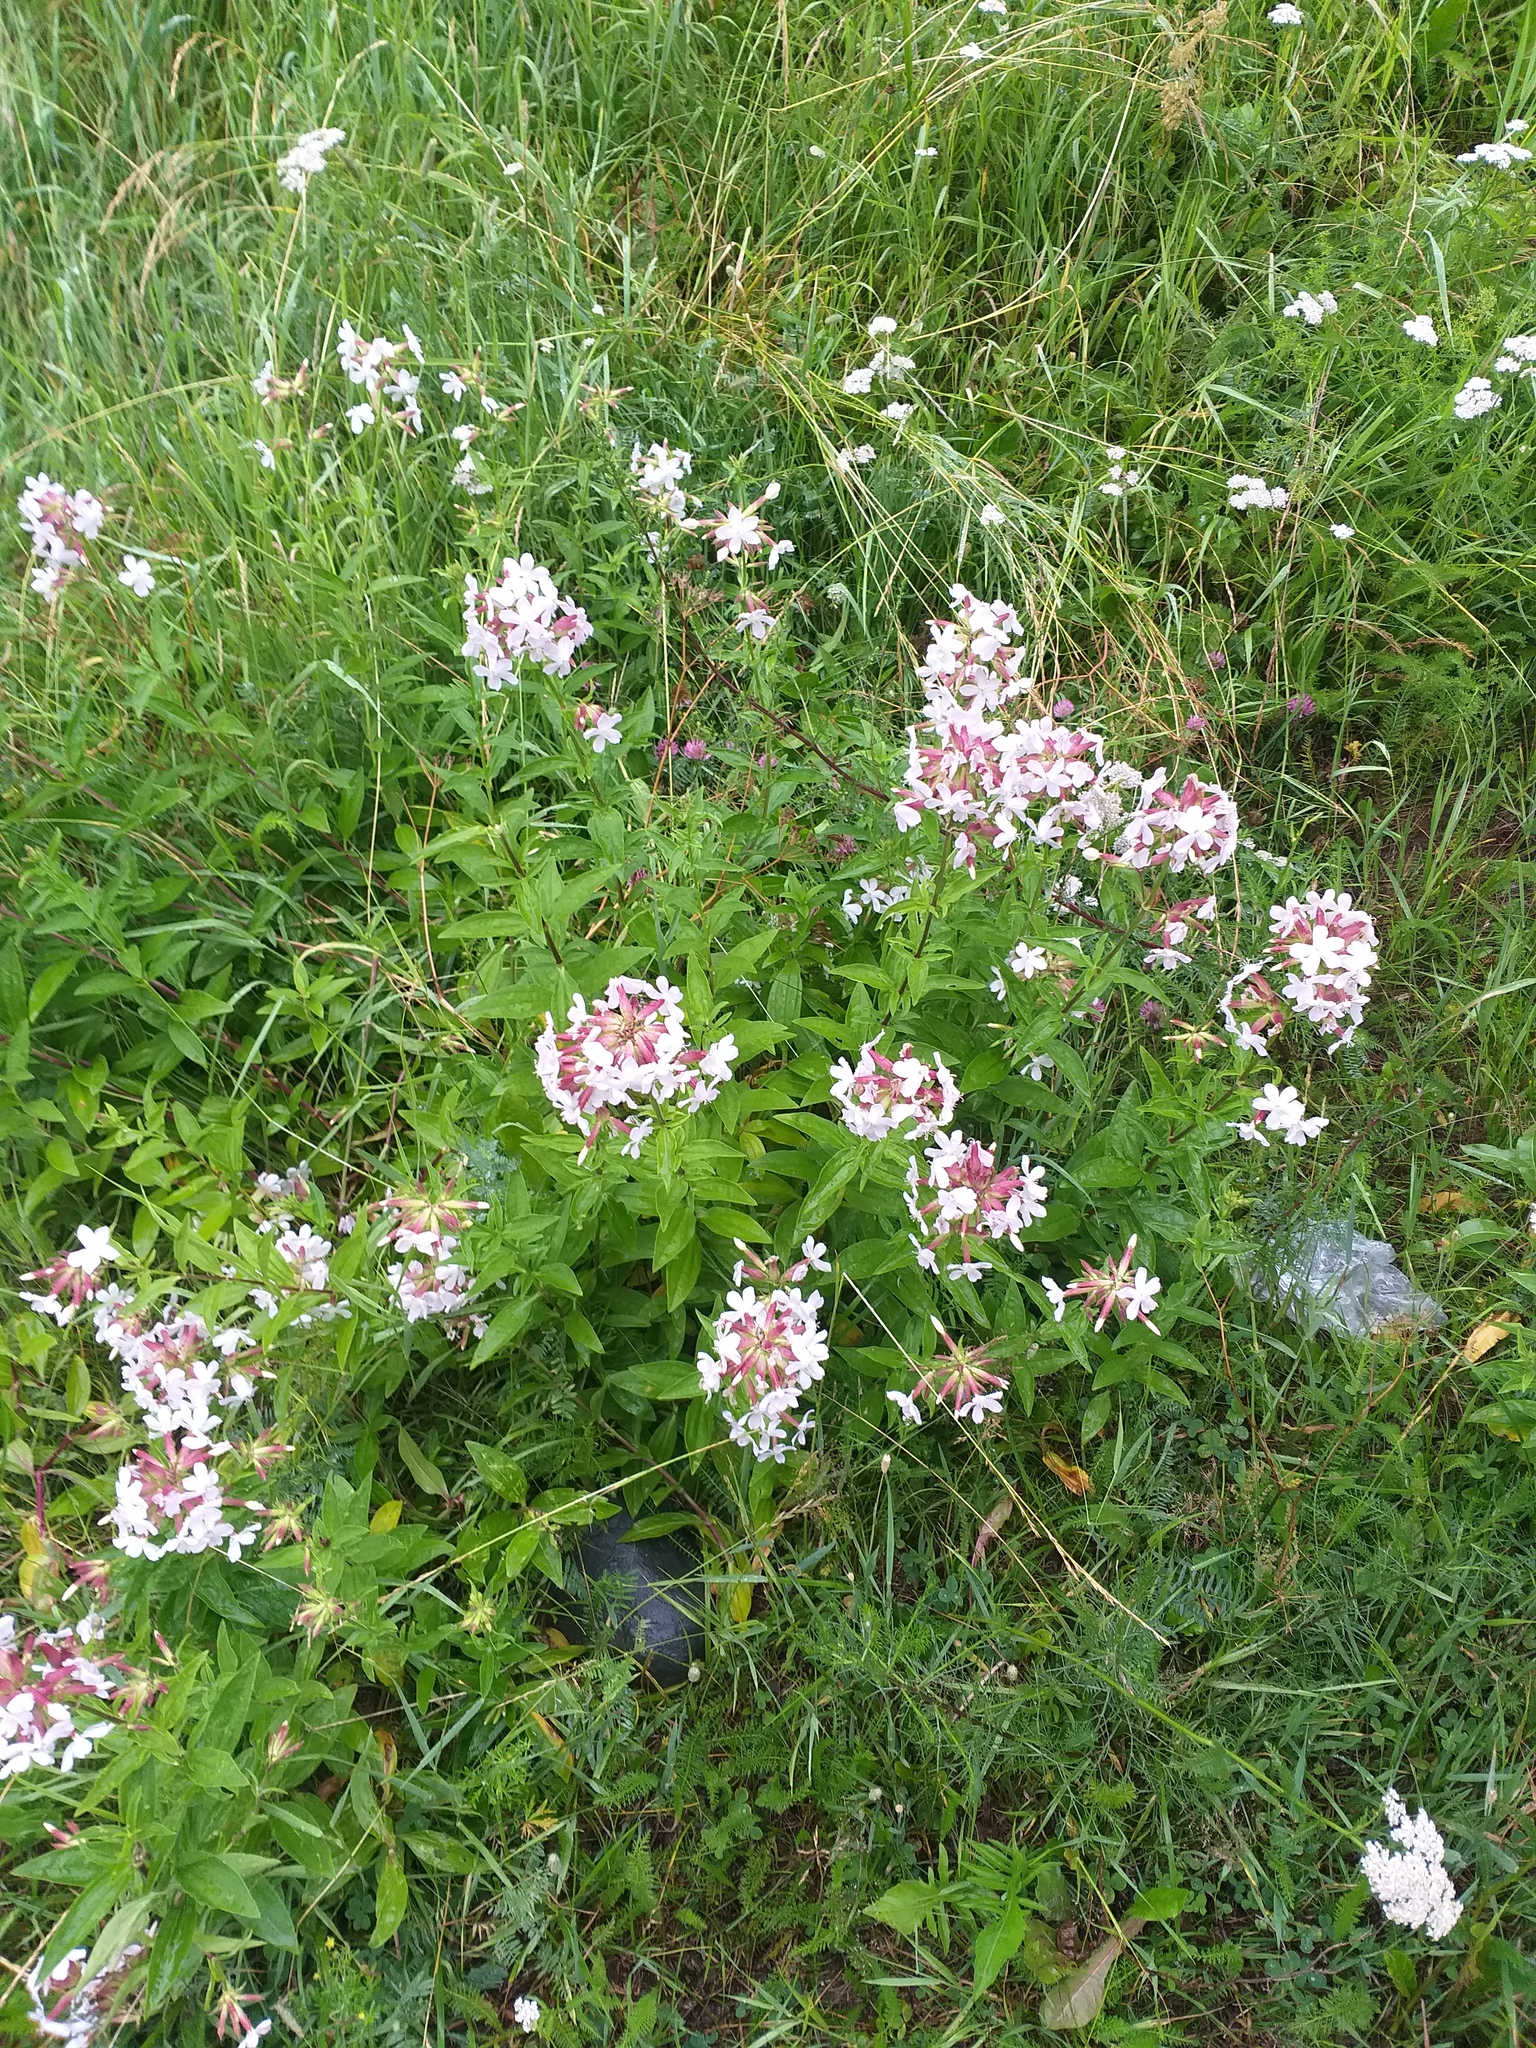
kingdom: Plantae
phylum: Tracheophyta
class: Magnoliopsida
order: Caryophyllales
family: Caryophyllaceae
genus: Saponaria
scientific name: Saponaria officinalis
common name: Soapwort
